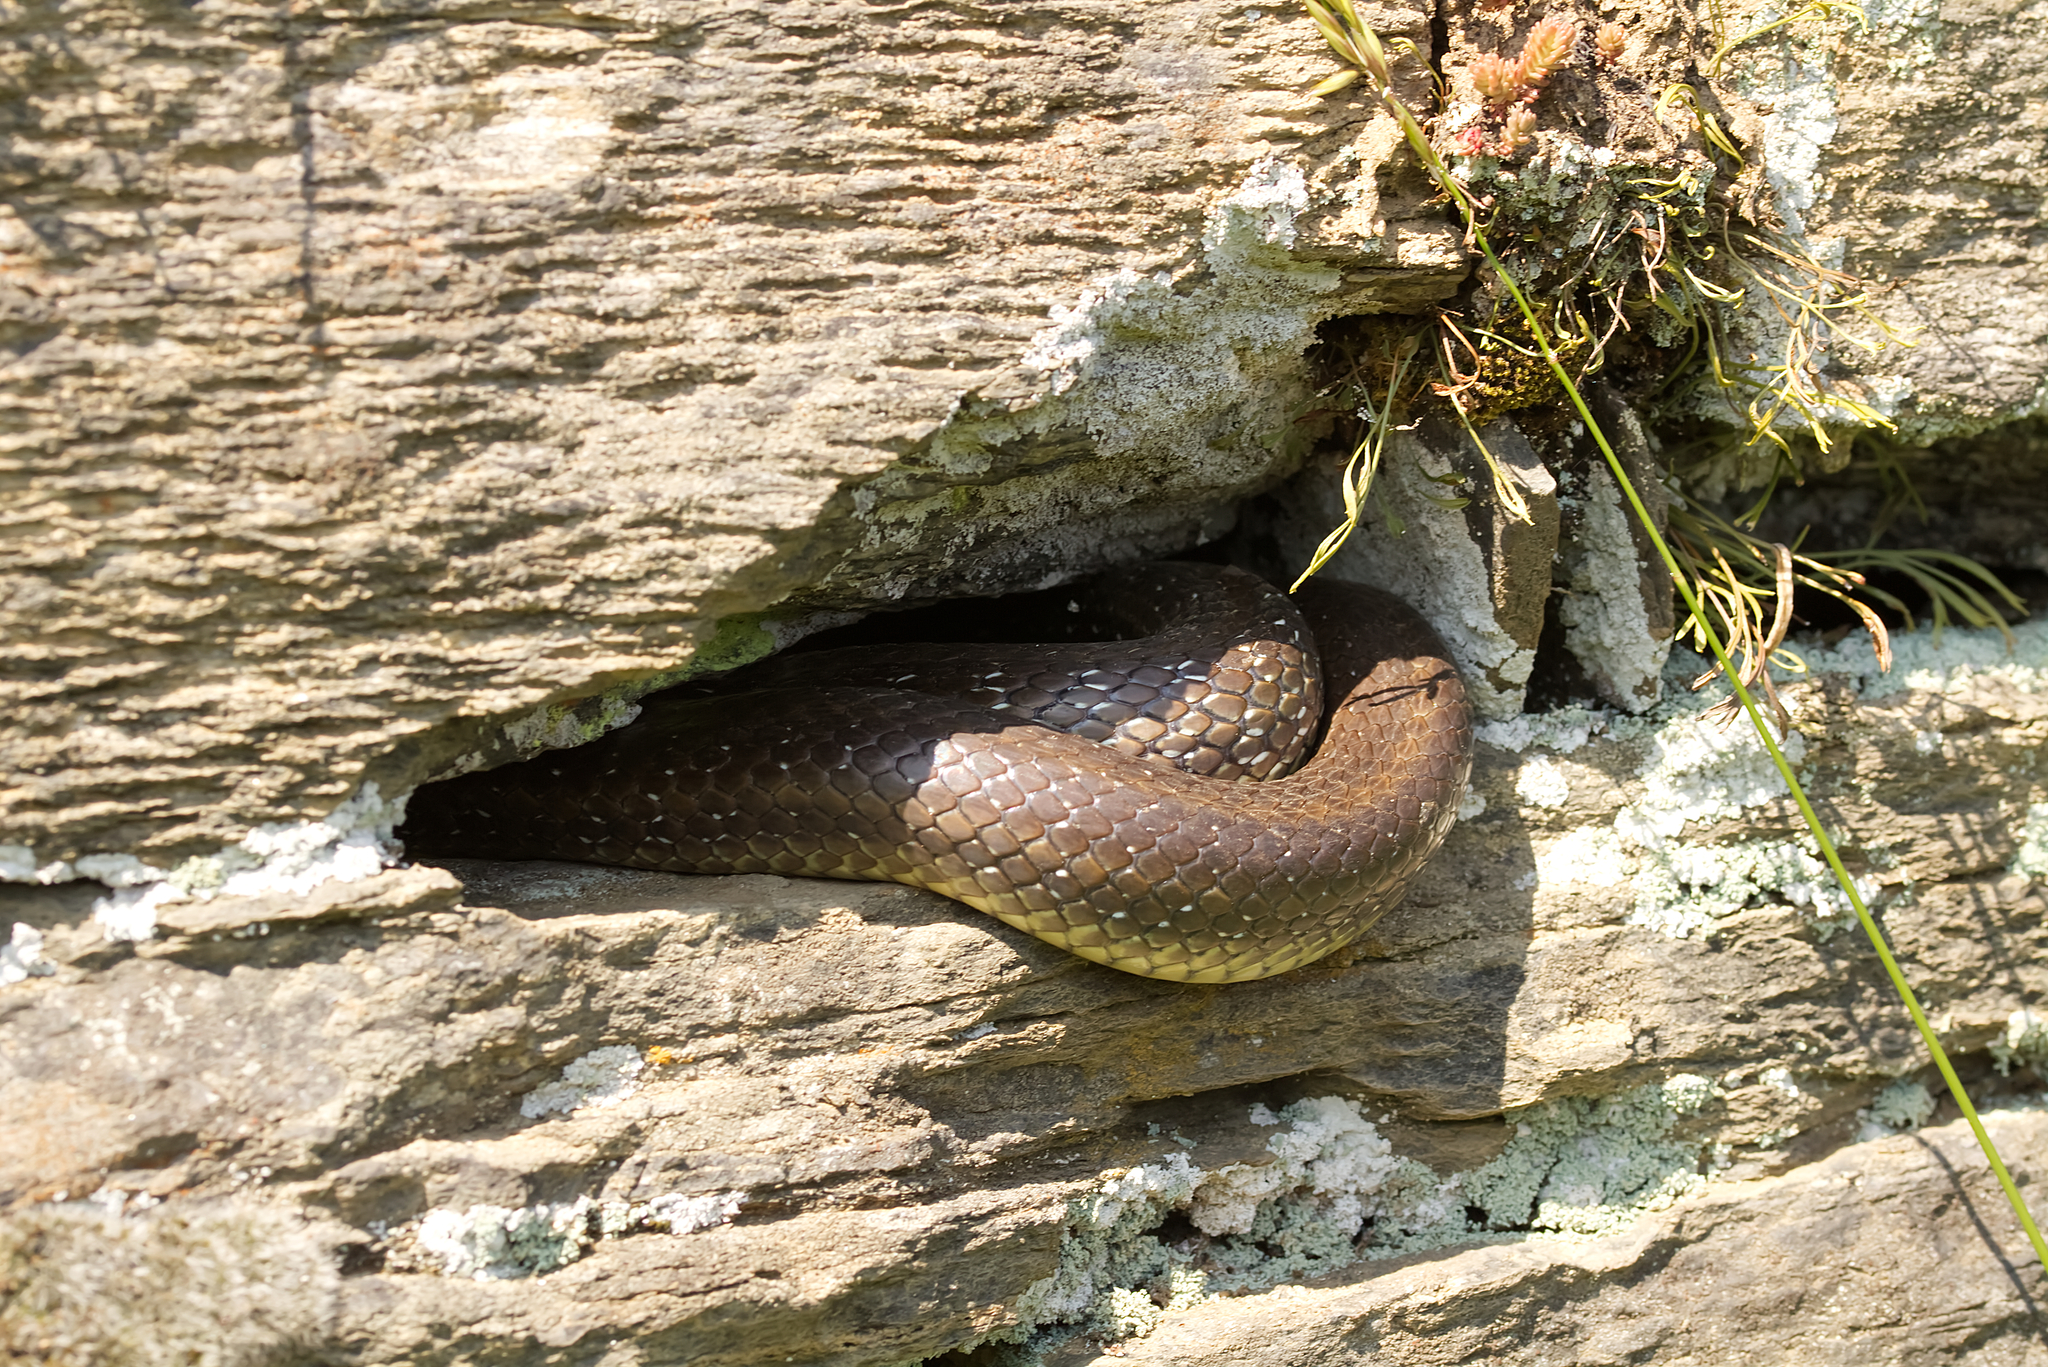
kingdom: Animalia
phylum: Chordata
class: Squamata
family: Colubridae
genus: Zamenis
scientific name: Zamenis longissimus
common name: Aesculapean snake
